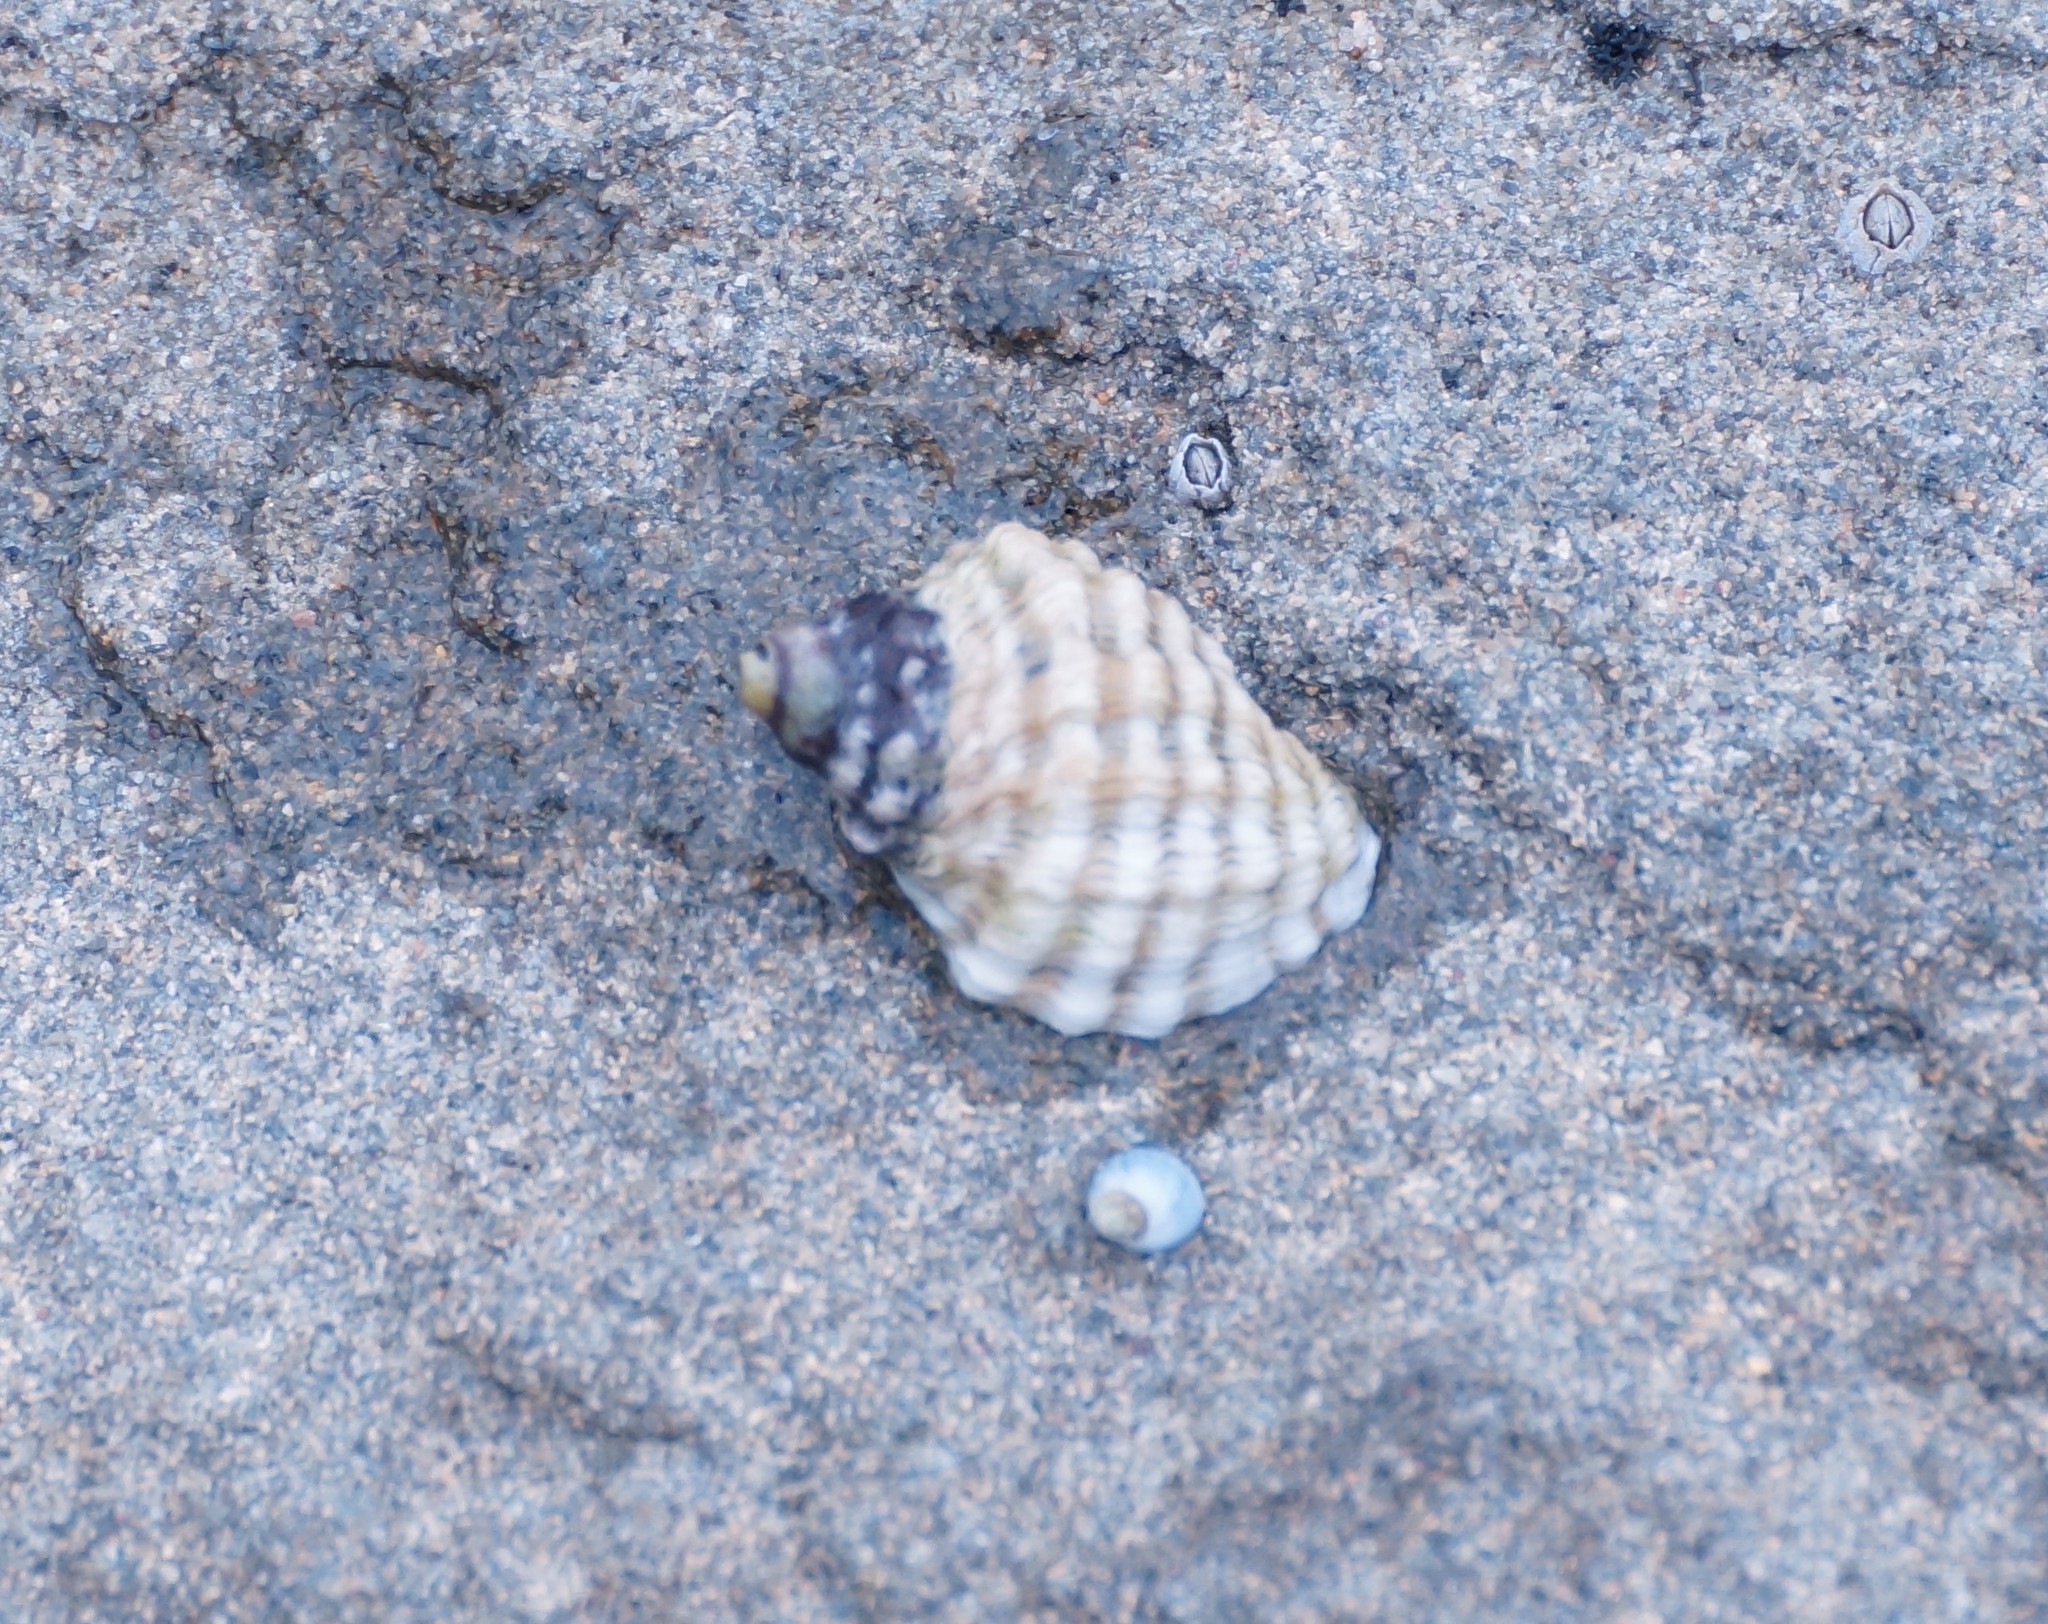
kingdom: Animalia
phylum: Mollusca
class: Gastropoda
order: Neogastropoda
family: Muricidae
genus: Bedeva
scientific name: Bedeva vinosa
